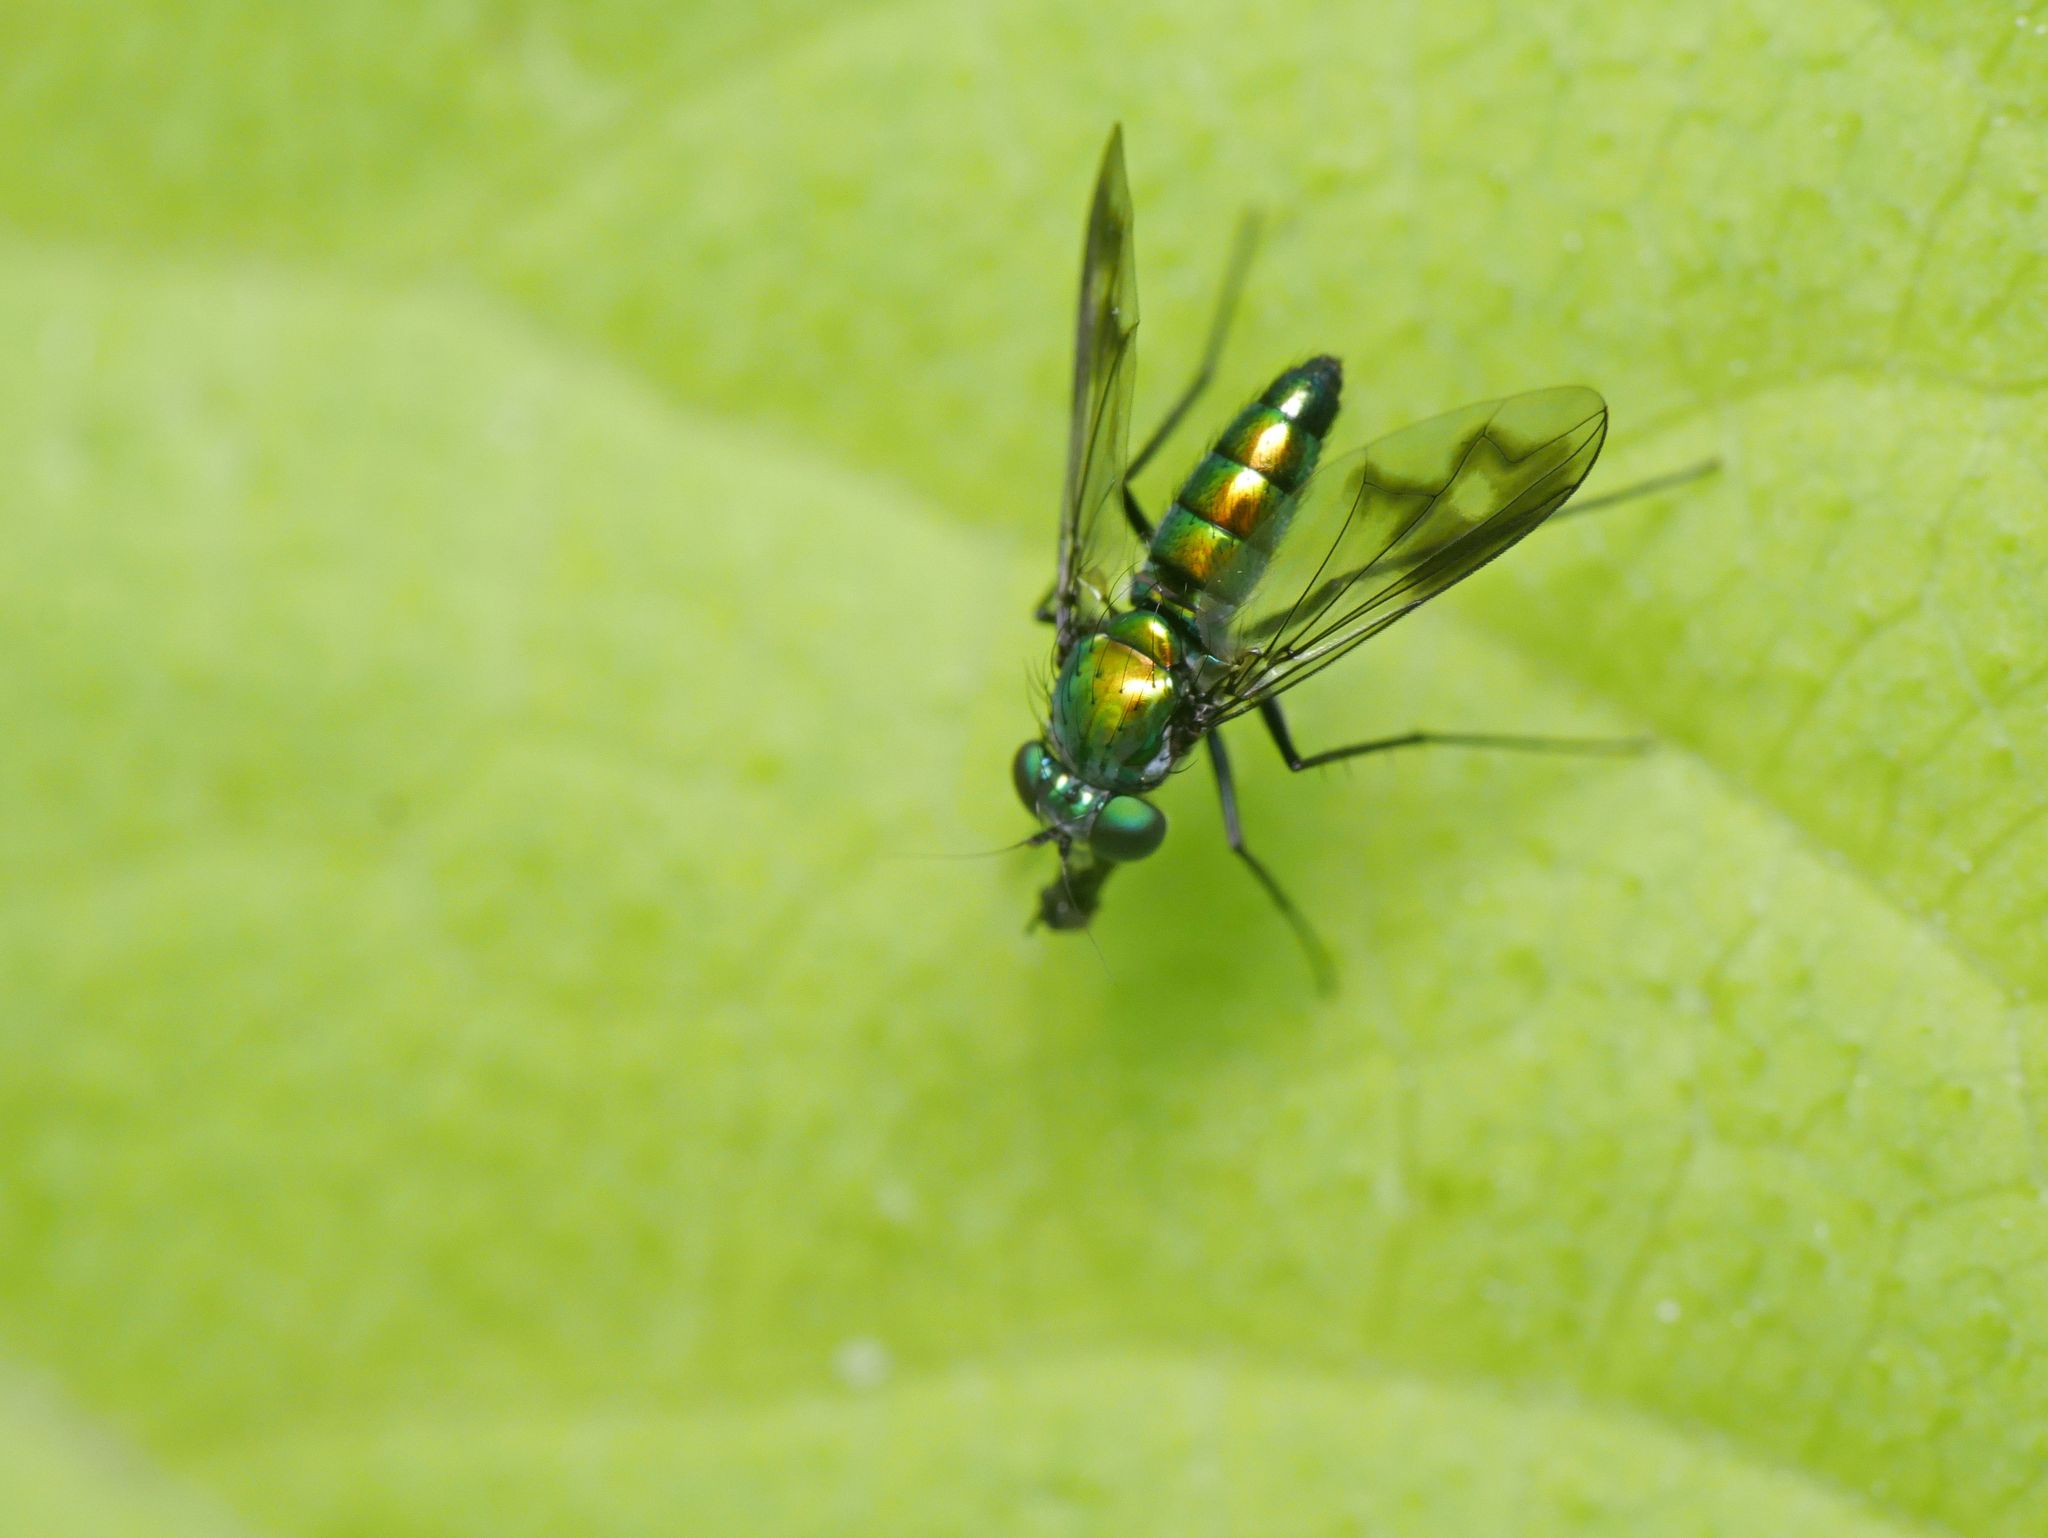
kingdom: Animalia
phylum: Arthropoda
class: Insecta
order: Diptera
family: Dolichopodidae
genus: Condylostylus
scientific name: Condylostylus patibulatus
